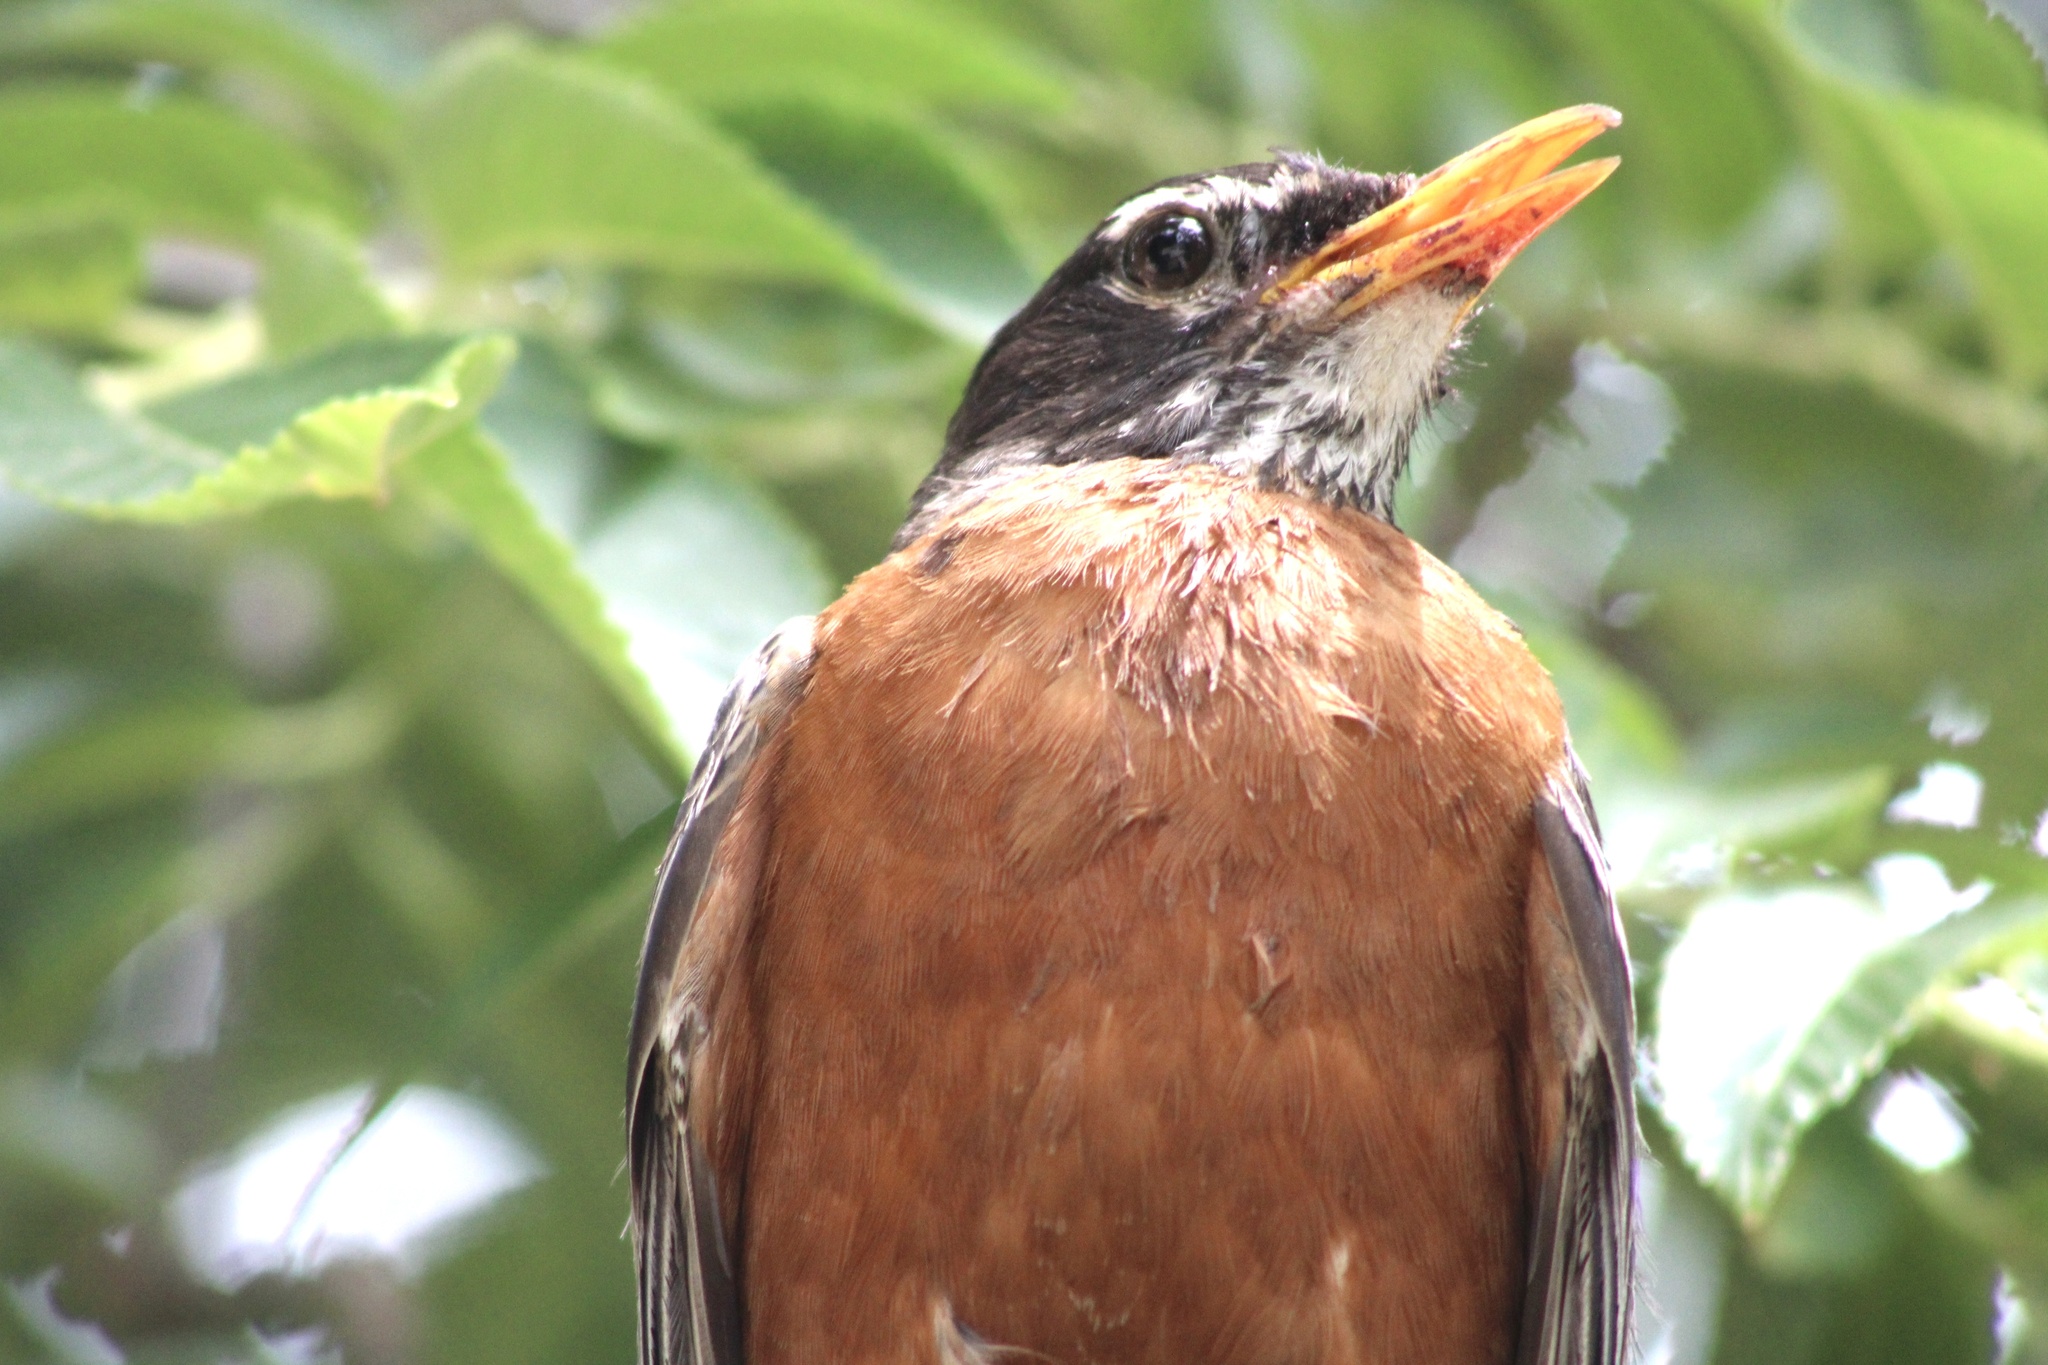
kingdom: Animalia
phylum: Chordata
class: Aves
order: Passeriformes
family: Turdidae
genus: Turdus
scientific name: Turdus migratorius
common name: American robin
